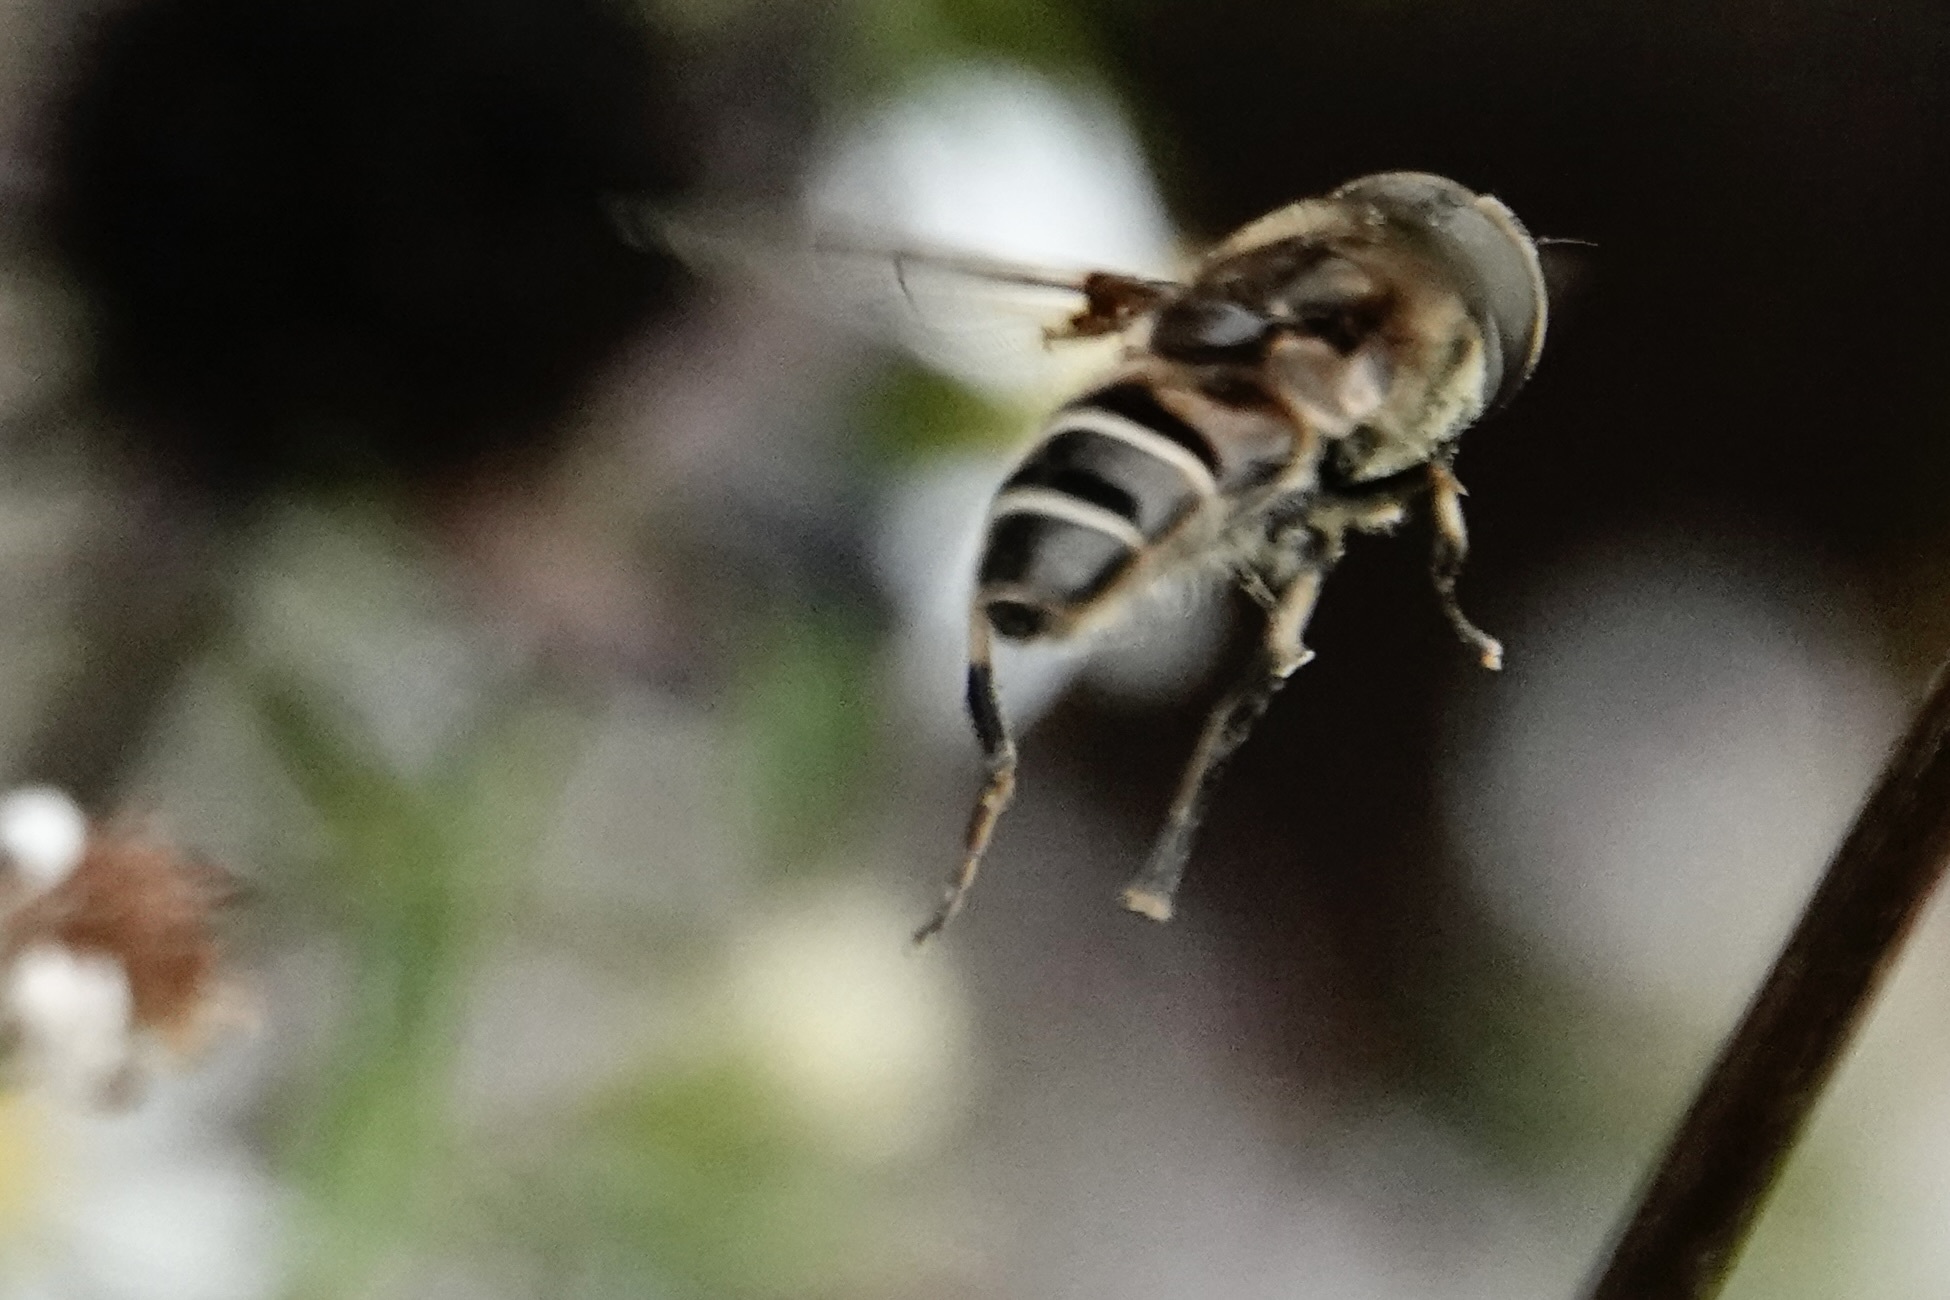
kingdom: Animalia
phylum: Arthropoda
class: Insecta
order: Diptera
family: Syrphidae
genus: Eristalis
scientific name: Eristalis dimidiata
